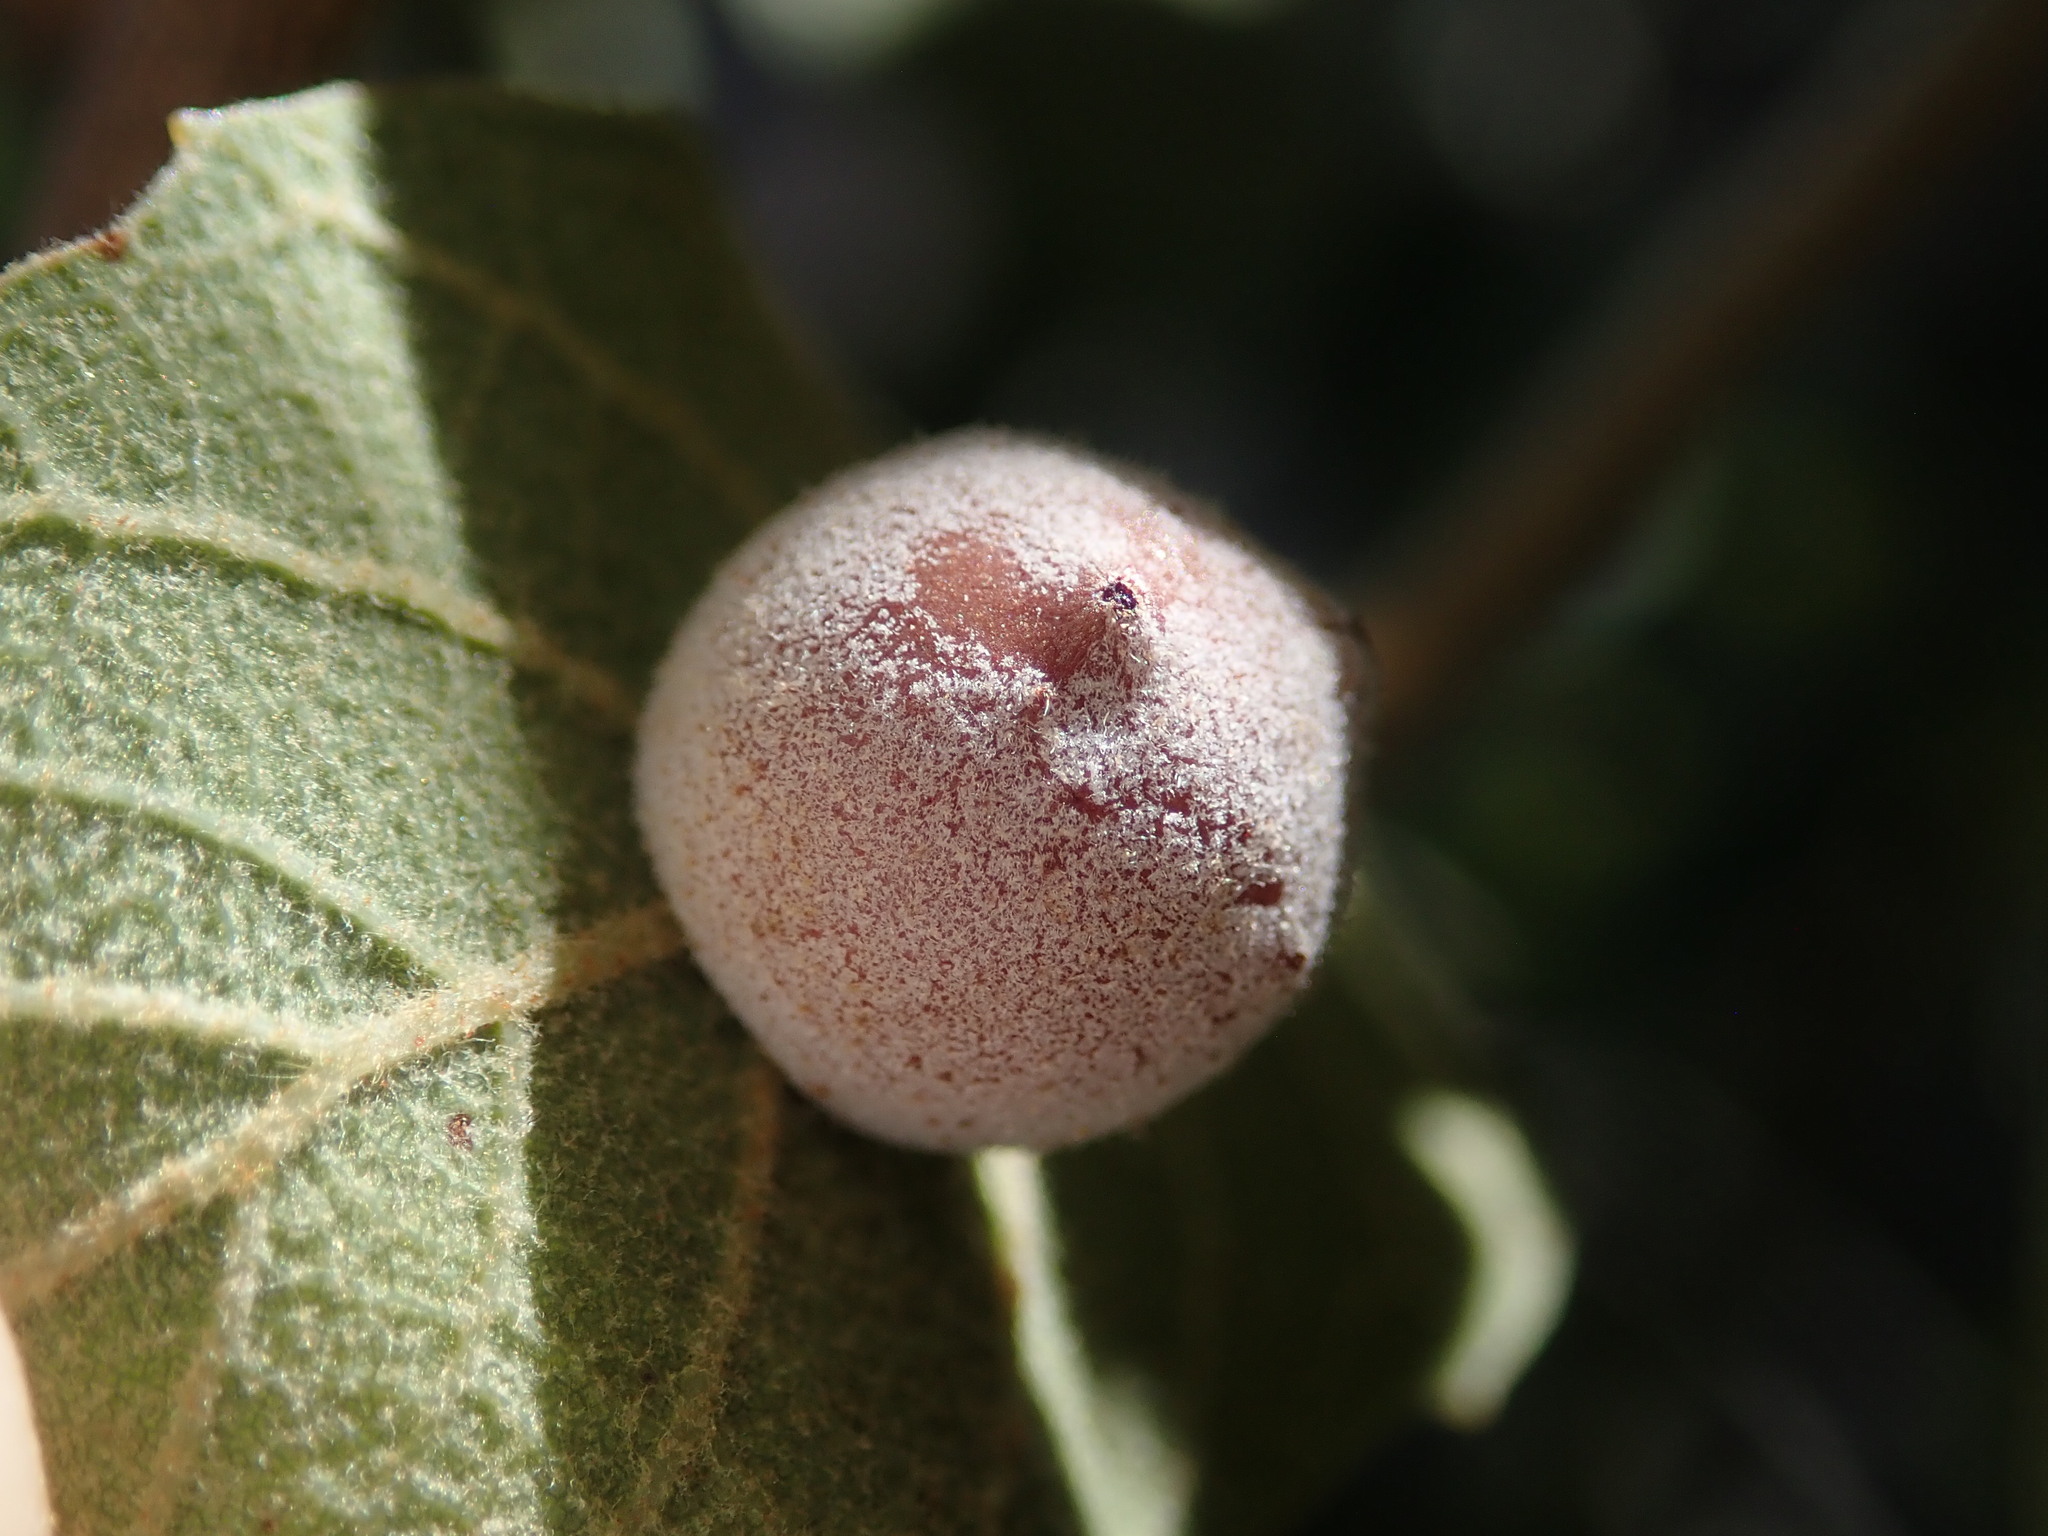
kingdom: Animalia
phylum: Arthropoda
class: Insecta
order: Hymenoptera
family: Cynipidae
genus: Cynips
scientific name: Cynips
